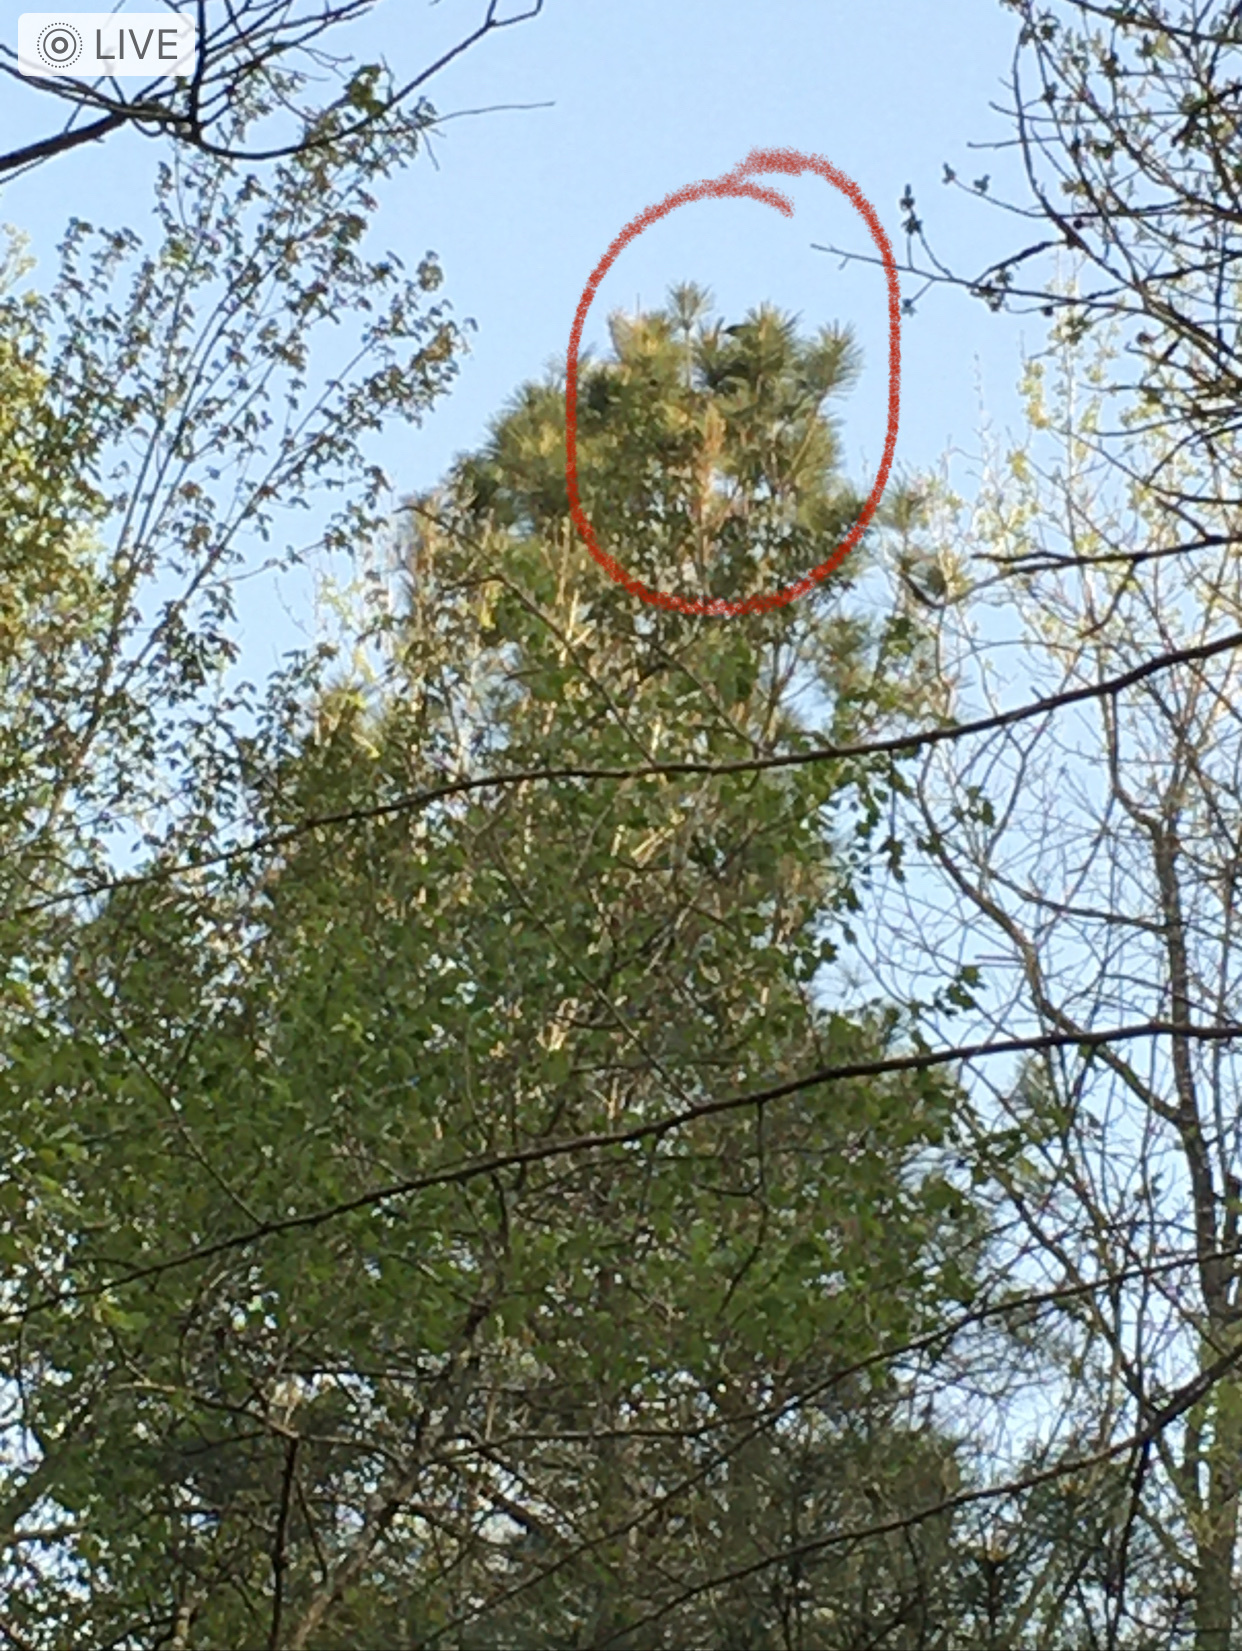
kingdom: Animalia
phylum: Chordata
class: Aves
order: Passeriformes
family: Corvidae
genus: Corvus
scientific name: Corvus brachyrhynchos
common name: American crow
